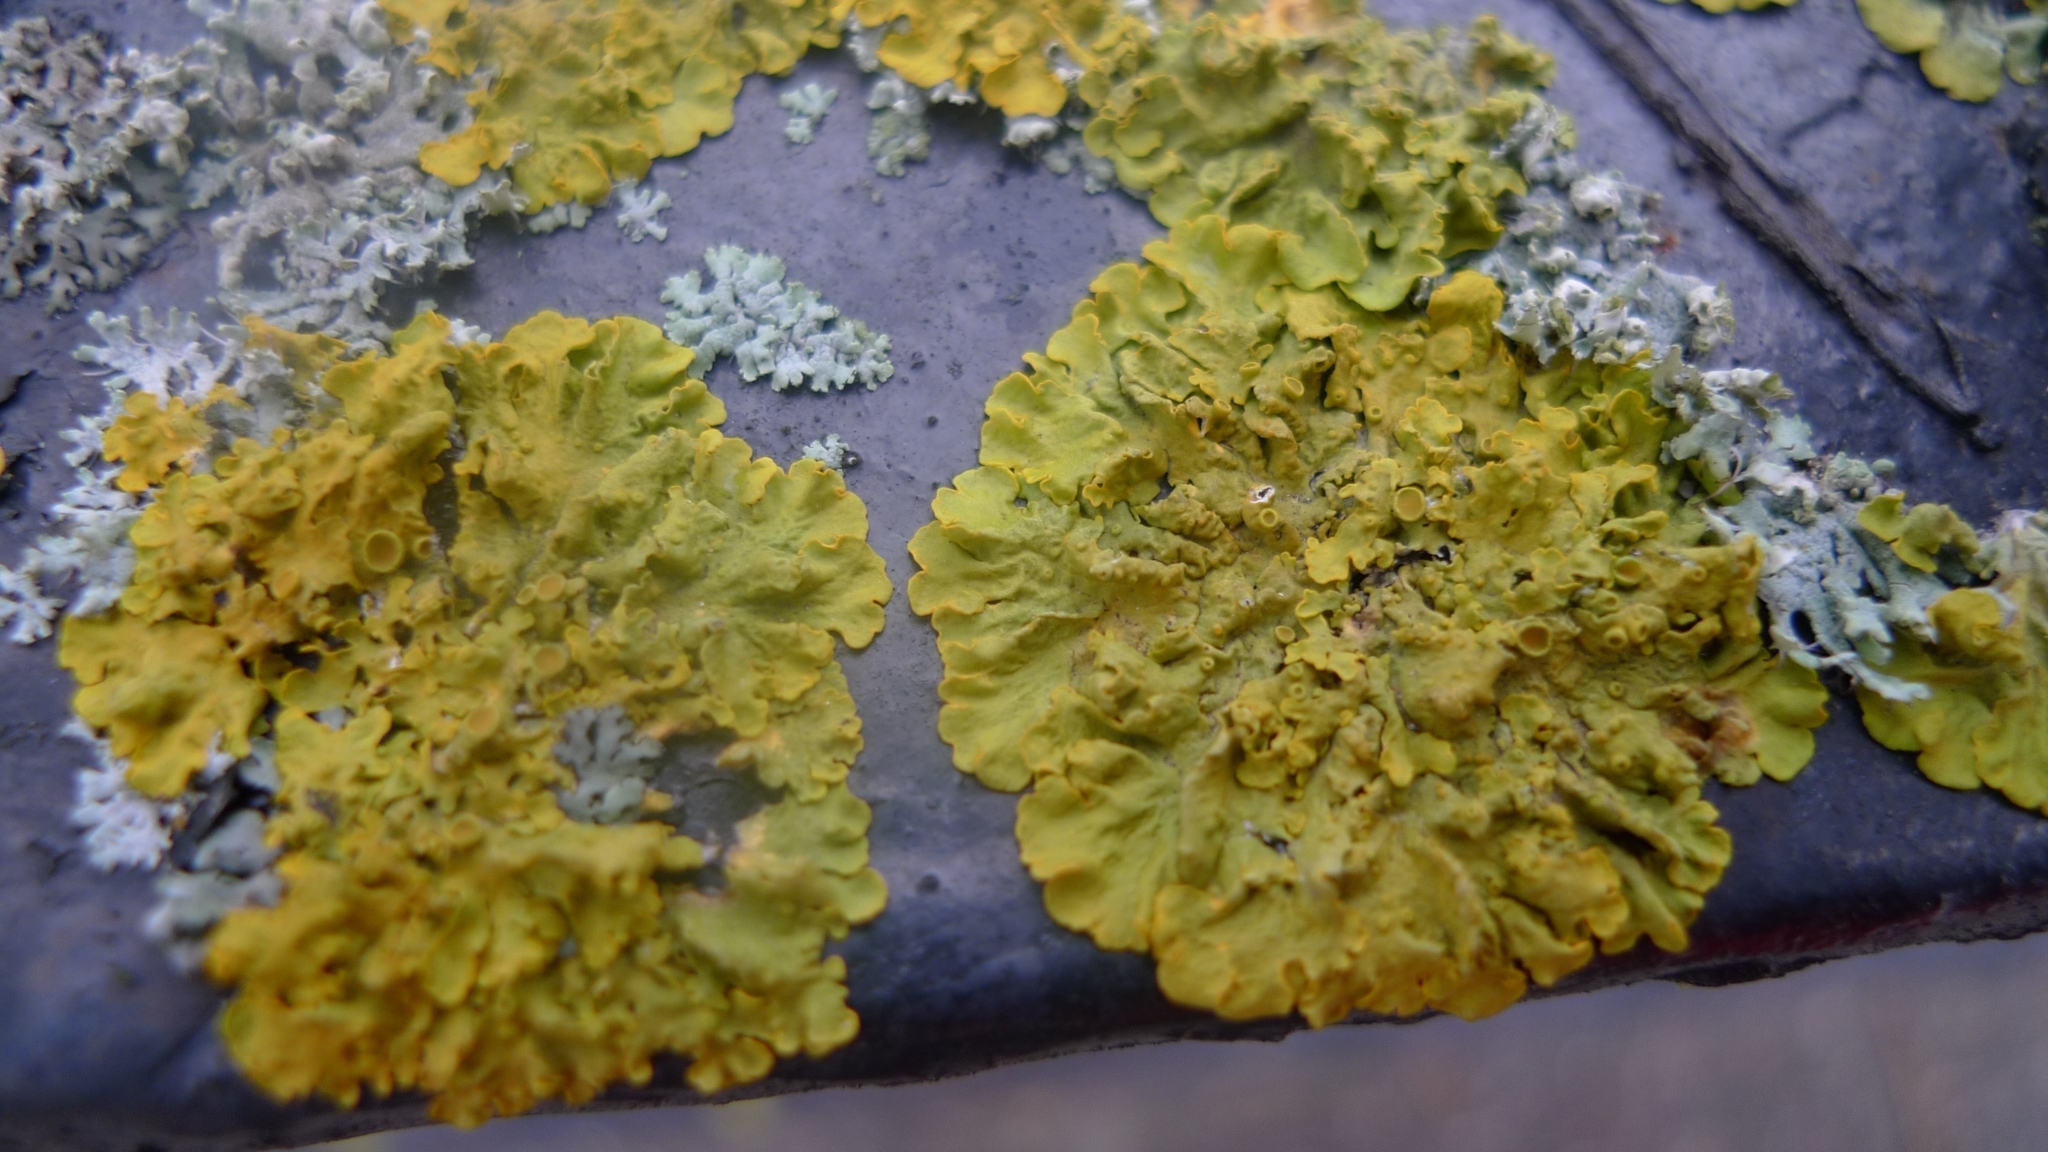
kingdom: Fungi
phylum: Ascomycota
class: Lecanoromycetes
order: Teloschistales
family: Teloschistaceae
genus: Xanthoria
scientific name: Xanthoria parietina
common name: Common orange lichen
